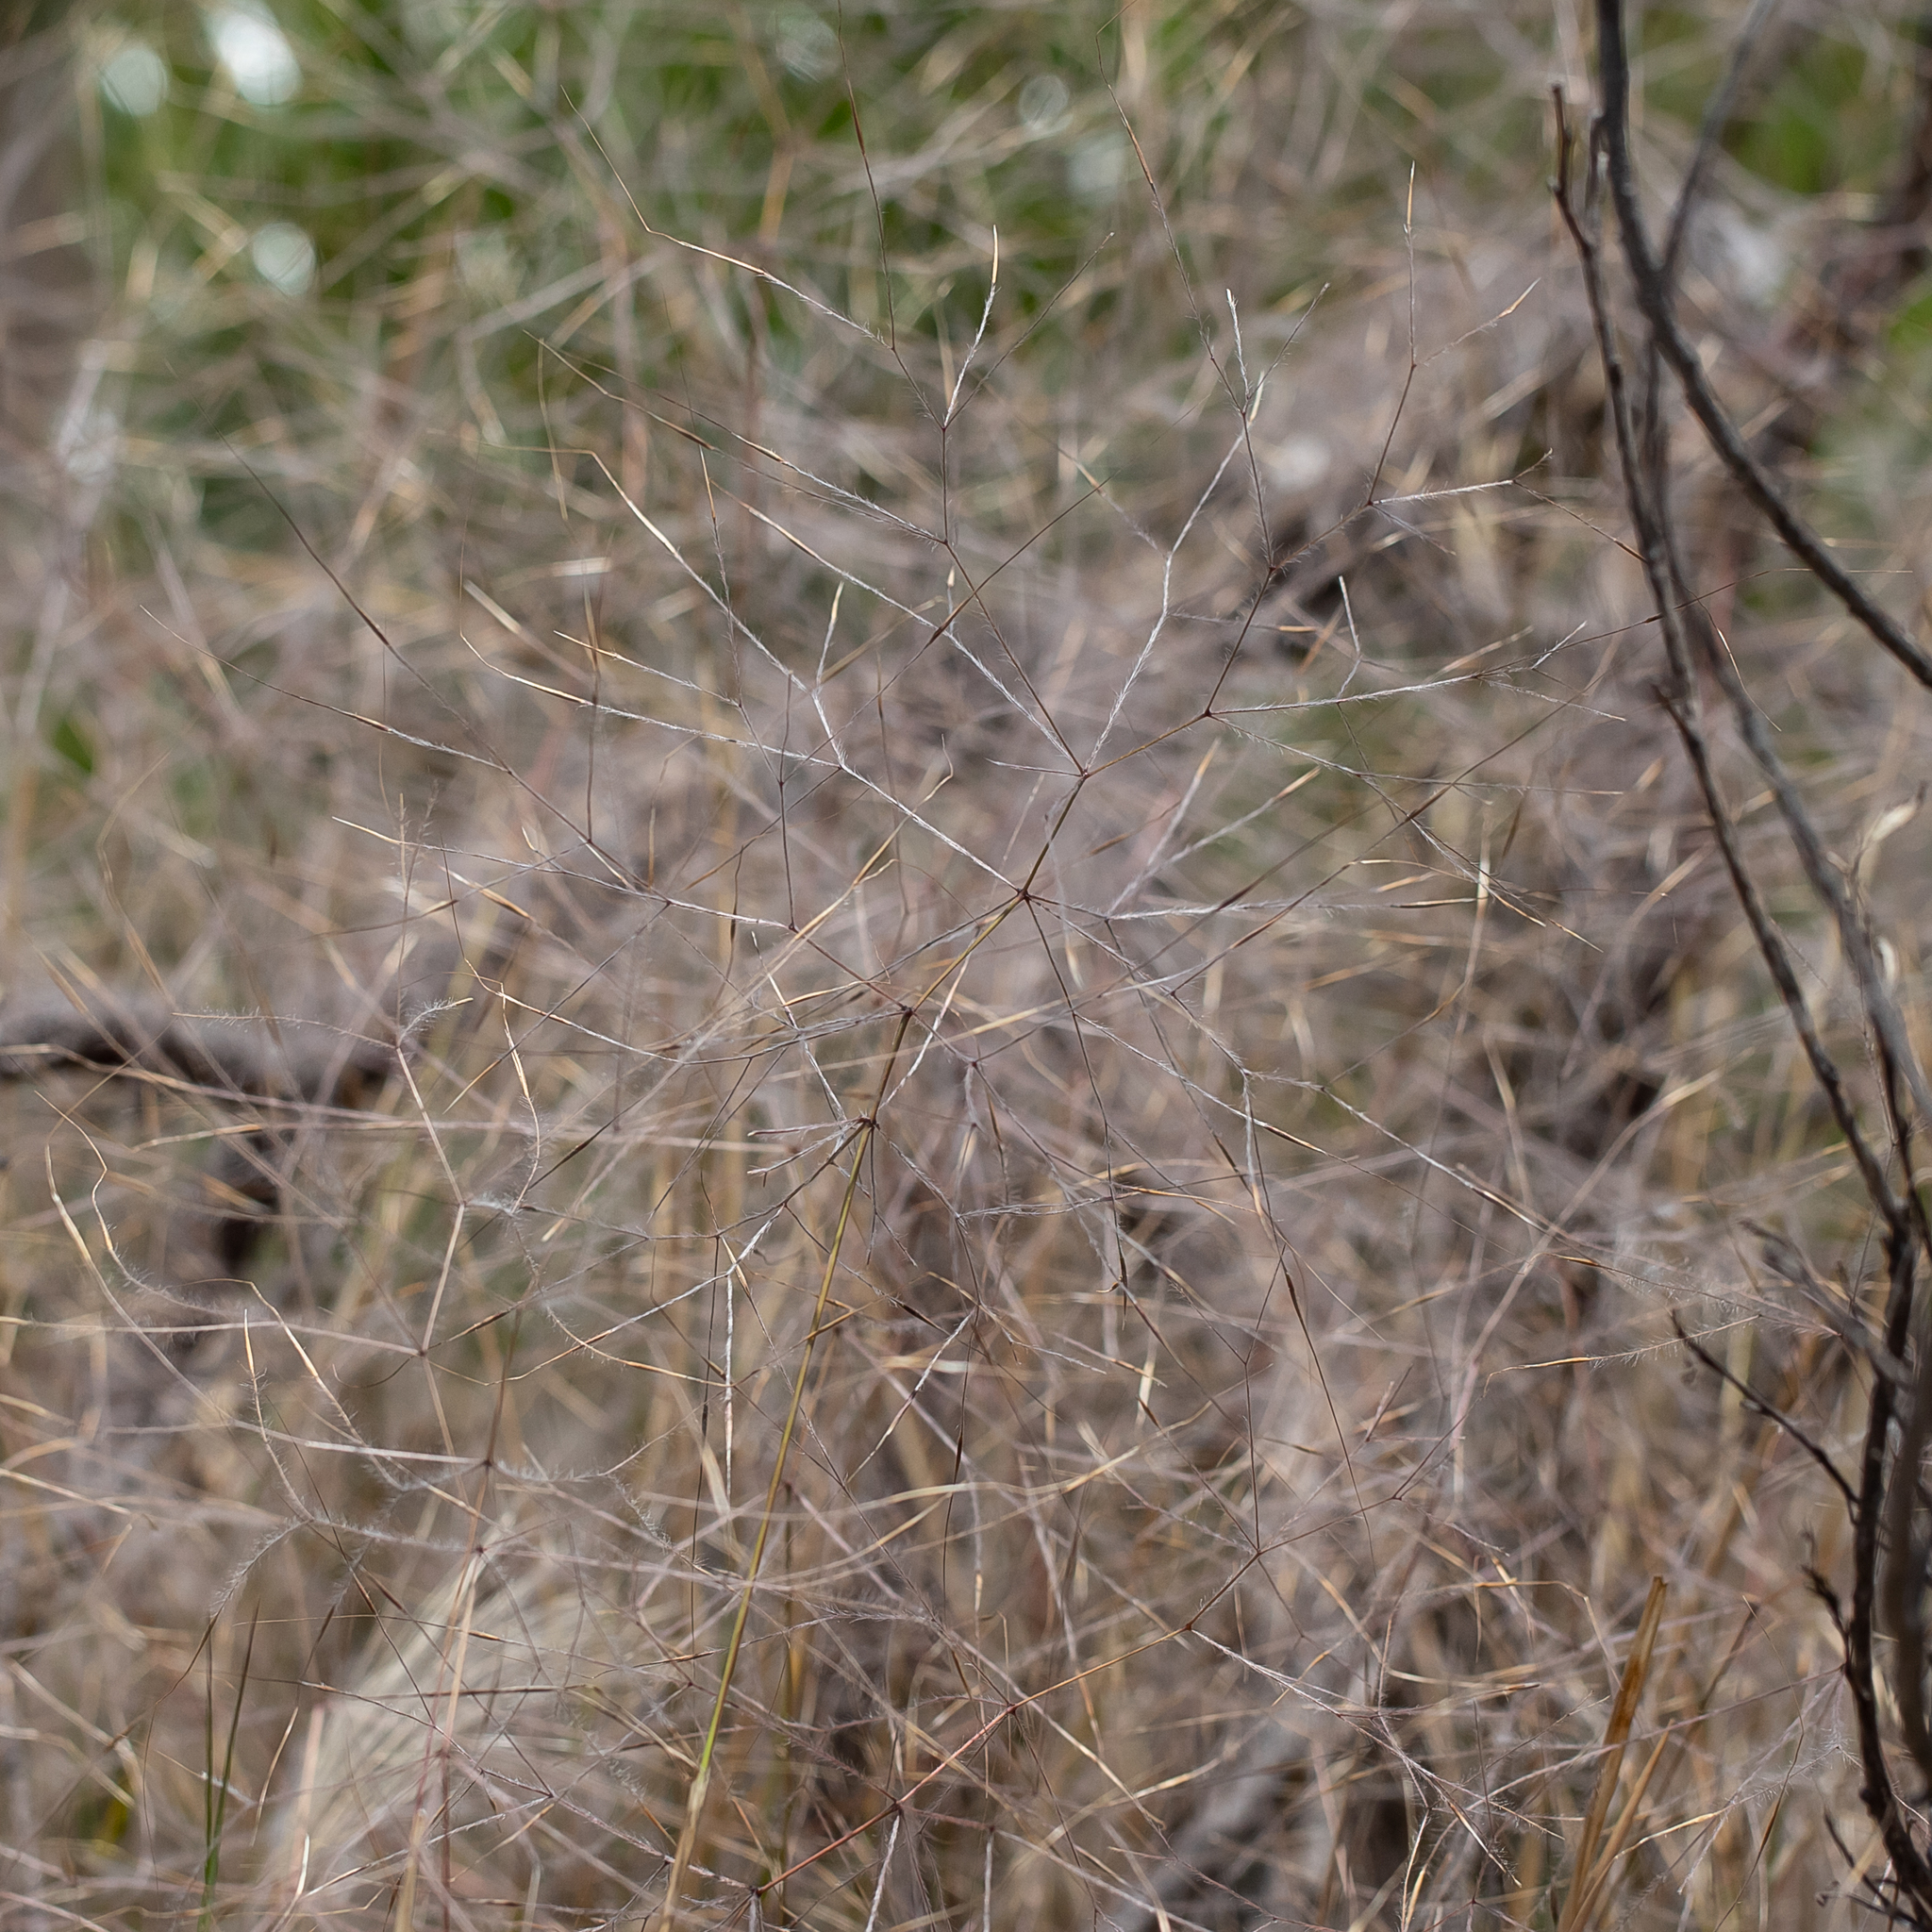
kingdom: Plantae
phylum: Tracheophyta
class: Liliopsida
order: Poales
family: Poaceae
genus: Austrostipa
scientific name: Austrostipa elegantissima
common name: Feather spear grass
